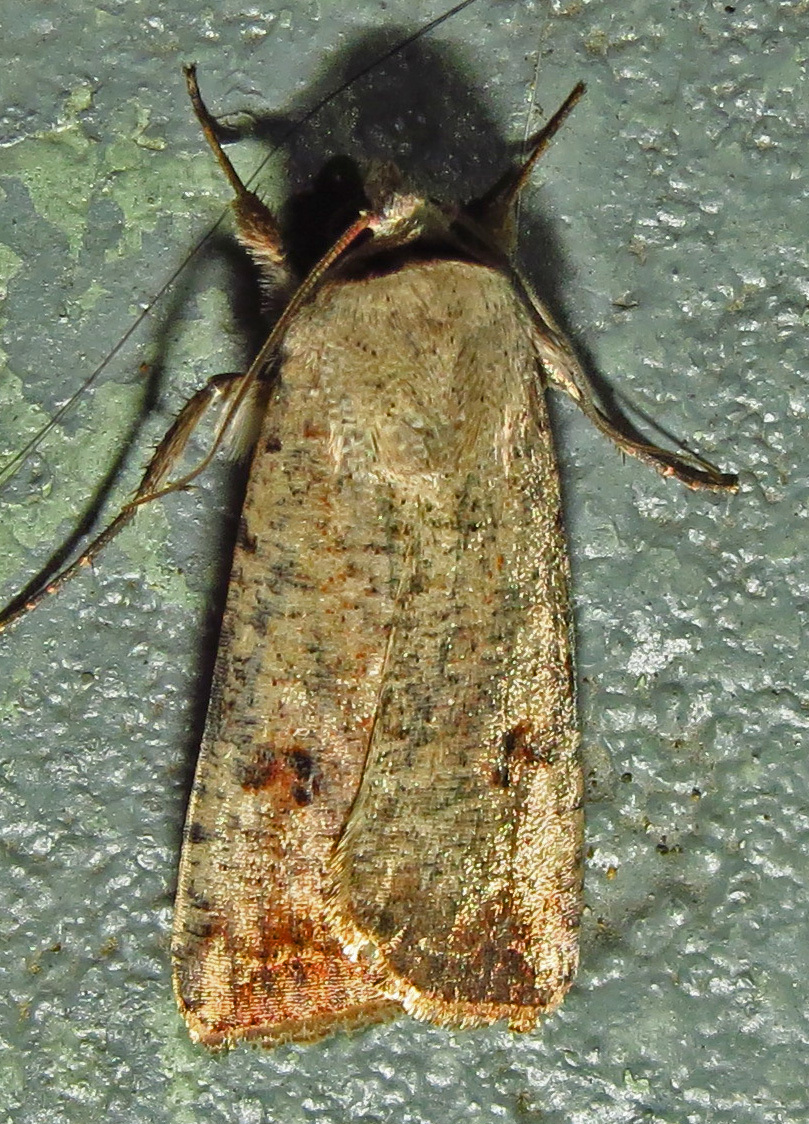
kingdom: Animalia
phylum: Arthropoda
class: Insecta
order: Lepidoptera
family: Noctuidae
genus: Anicla
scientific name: Anicla infecta
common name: Green cutworm
